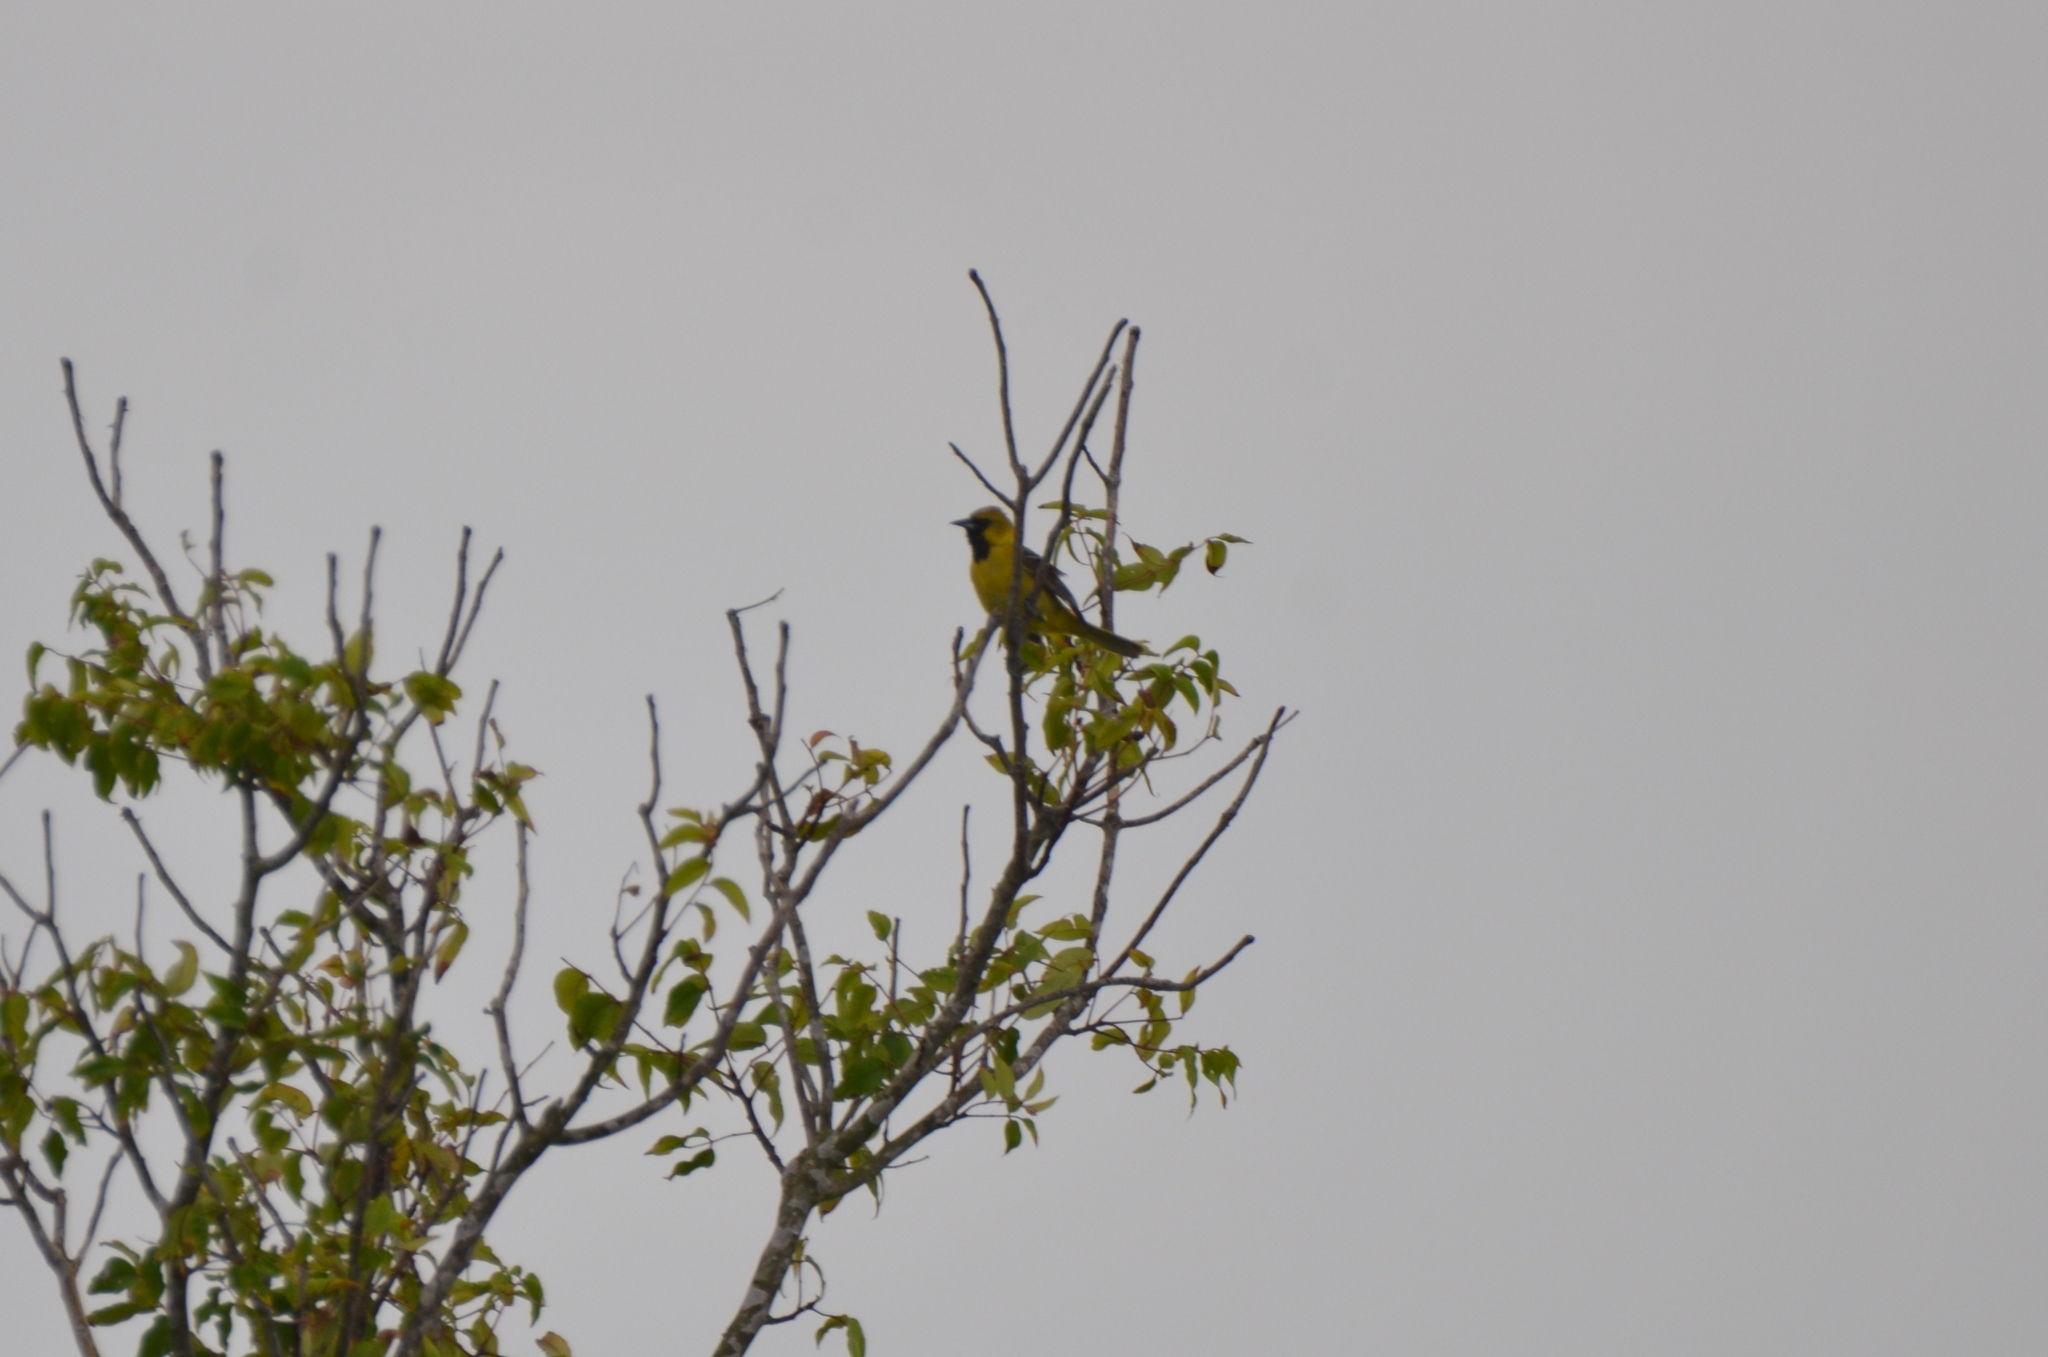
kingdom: Animalia
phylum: Chordata
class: Aves
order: Passeriformes
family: Icteridae
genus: Icterus
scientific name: Icterus spurius
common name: Orchard oriole
